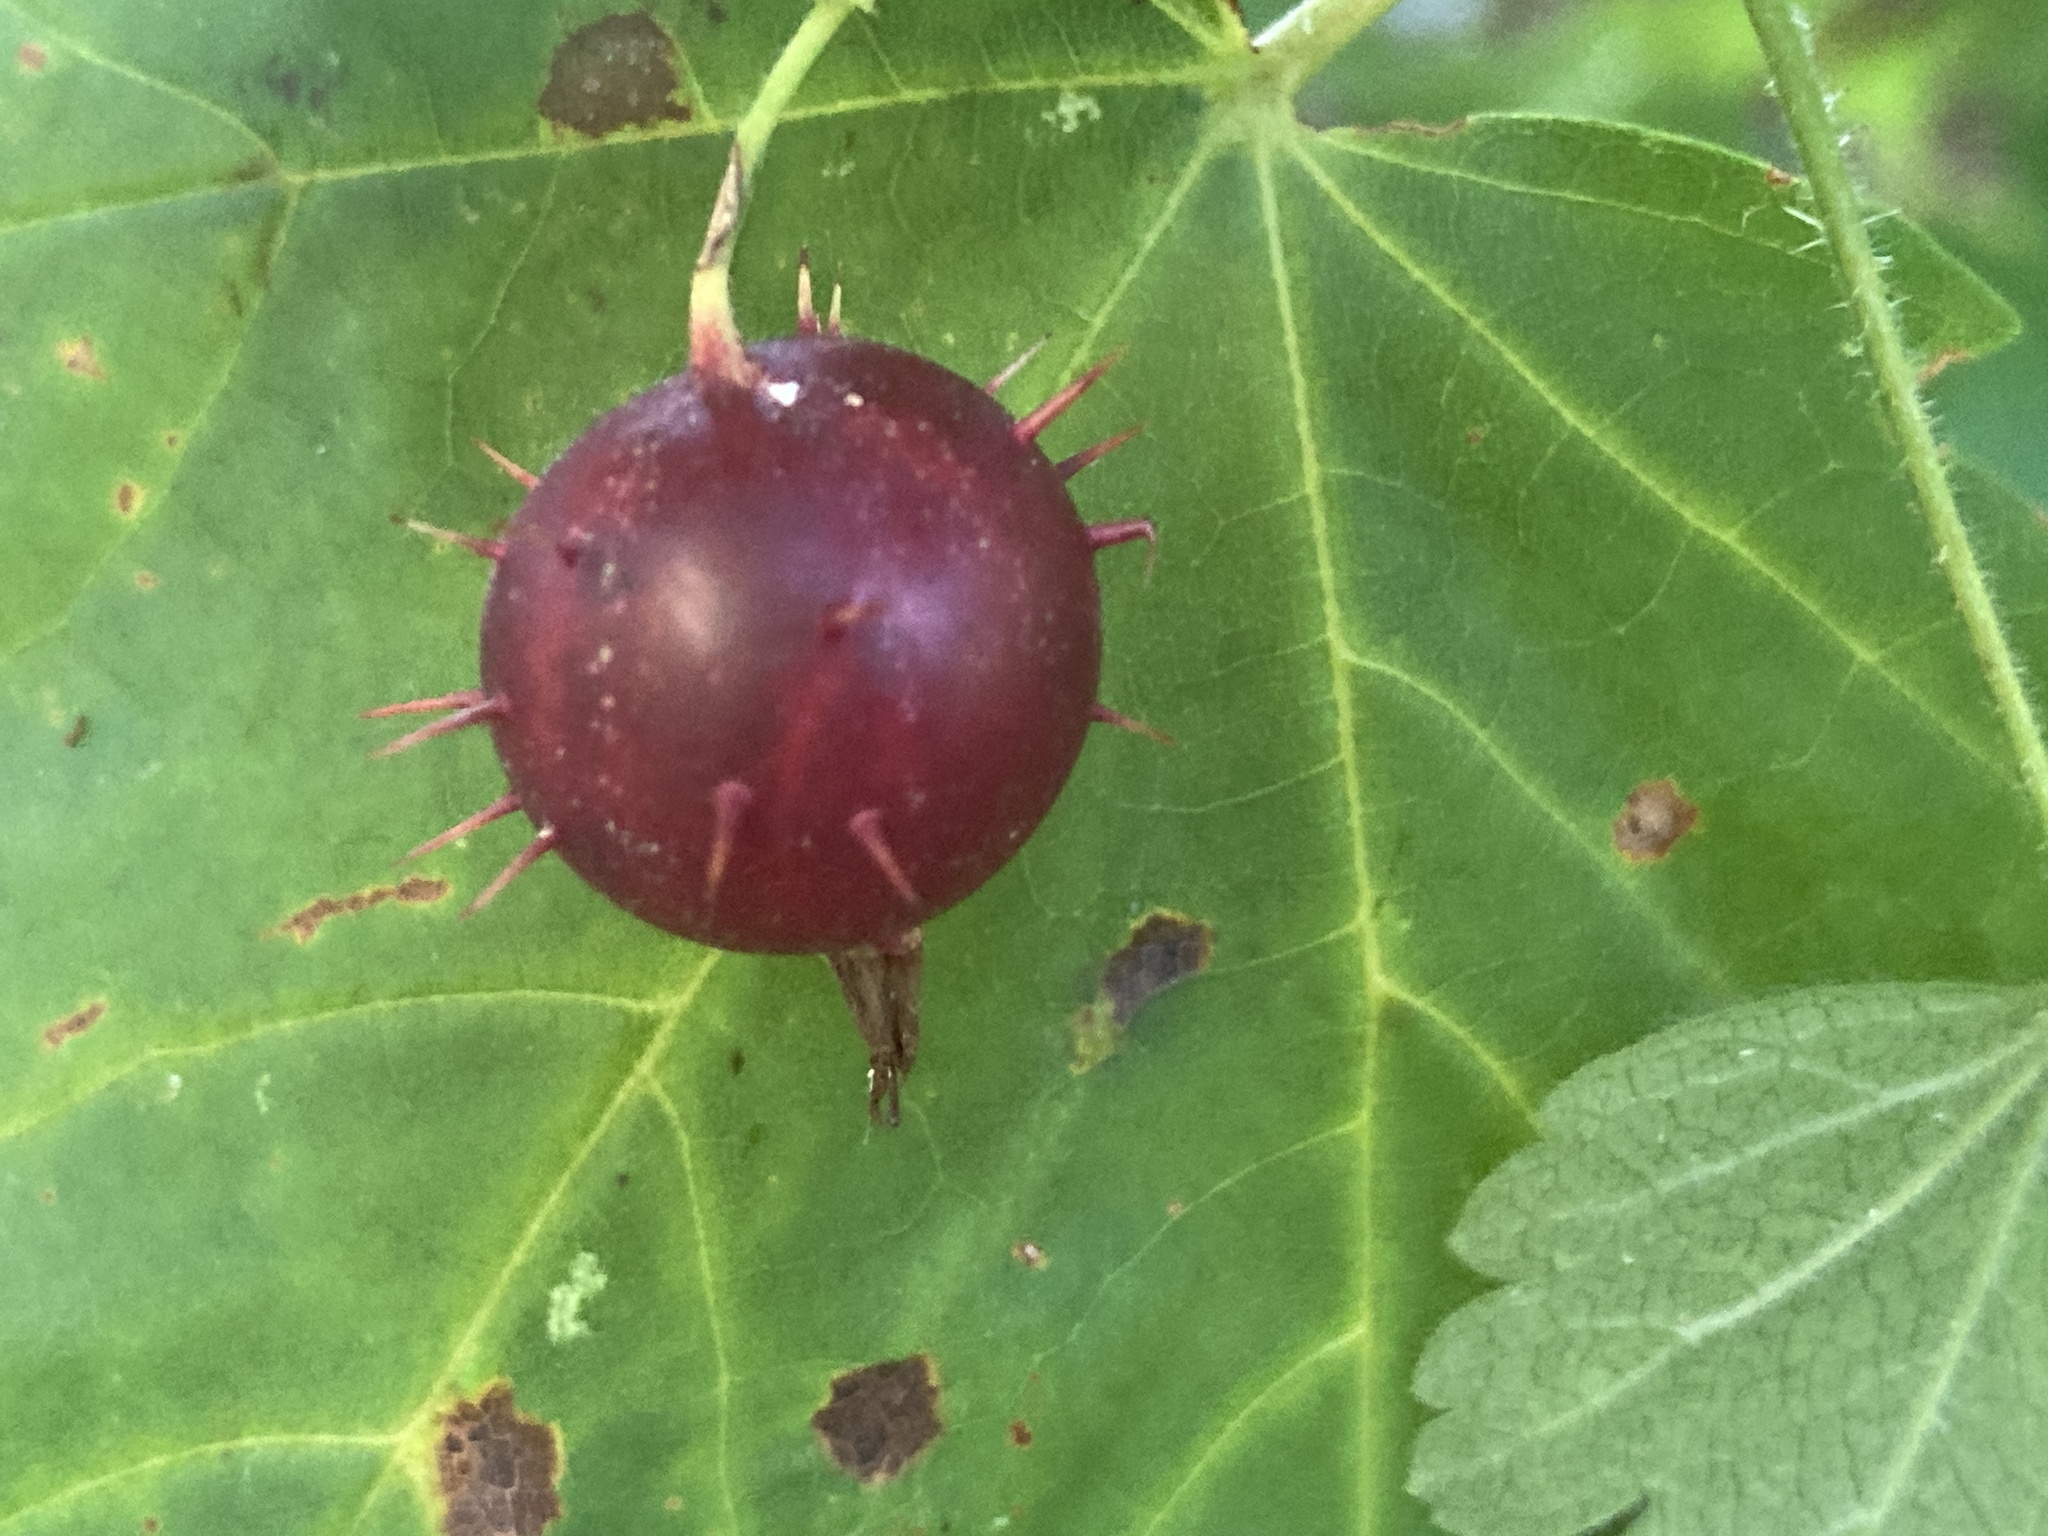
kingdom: Plantae
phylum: Tracheophyta
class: Magnoliopsida
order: Saxifragales
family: Grossulariaceae
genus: Ribes
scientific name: Ribes cynosbati
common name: American gooseberry
